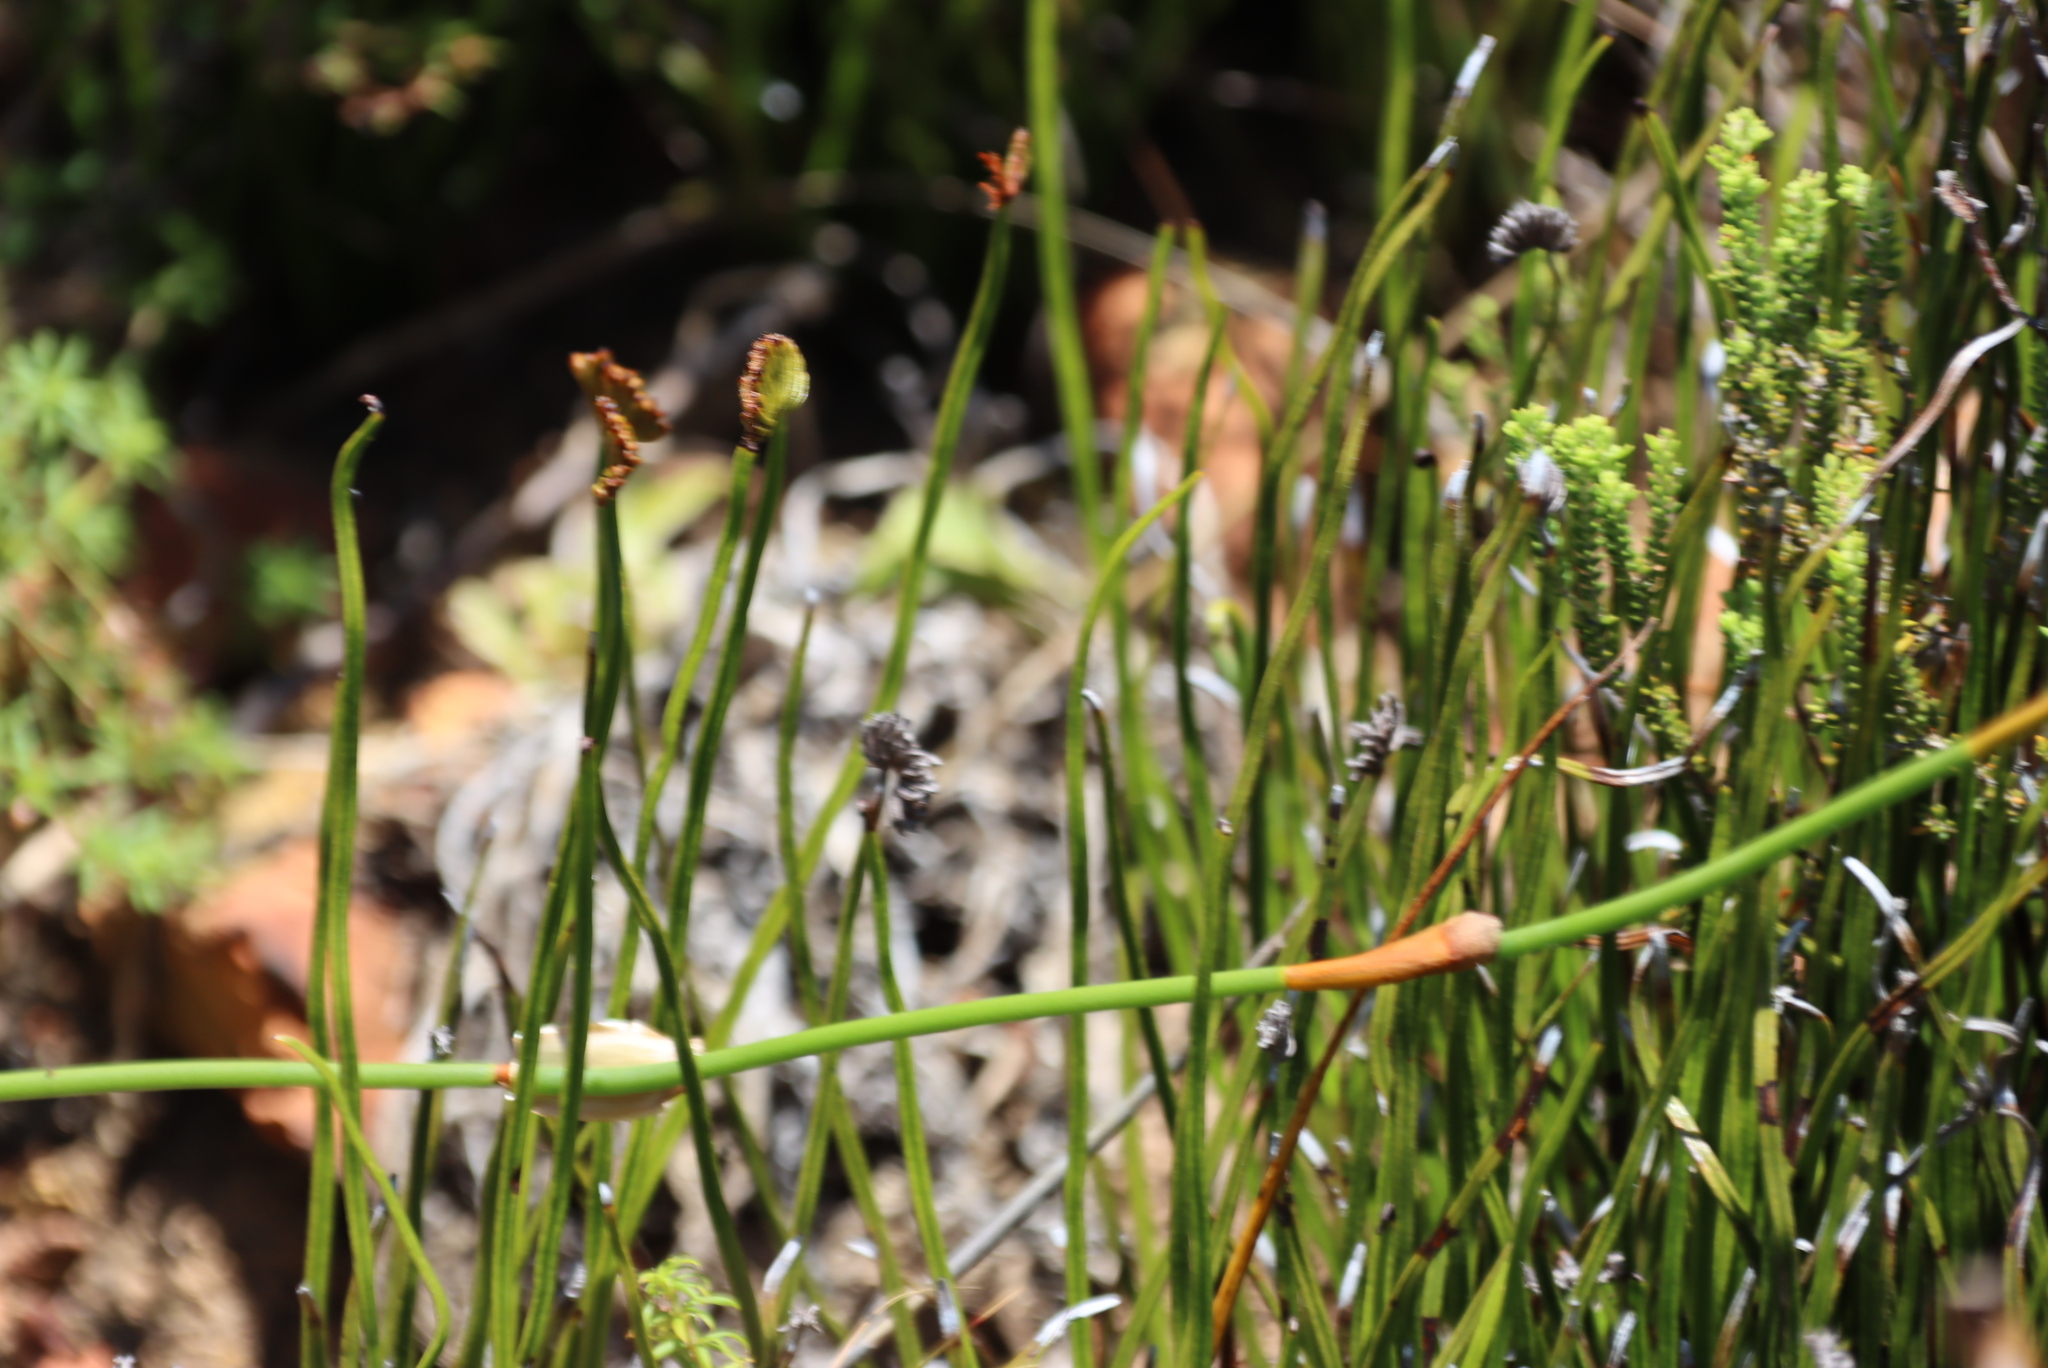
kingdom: Plantae
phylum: Tracheophyta
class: Polypodiopsida
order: Schizaeales
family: Schizaeaceae
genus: Schizaea
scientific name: Schizaea pectinata
